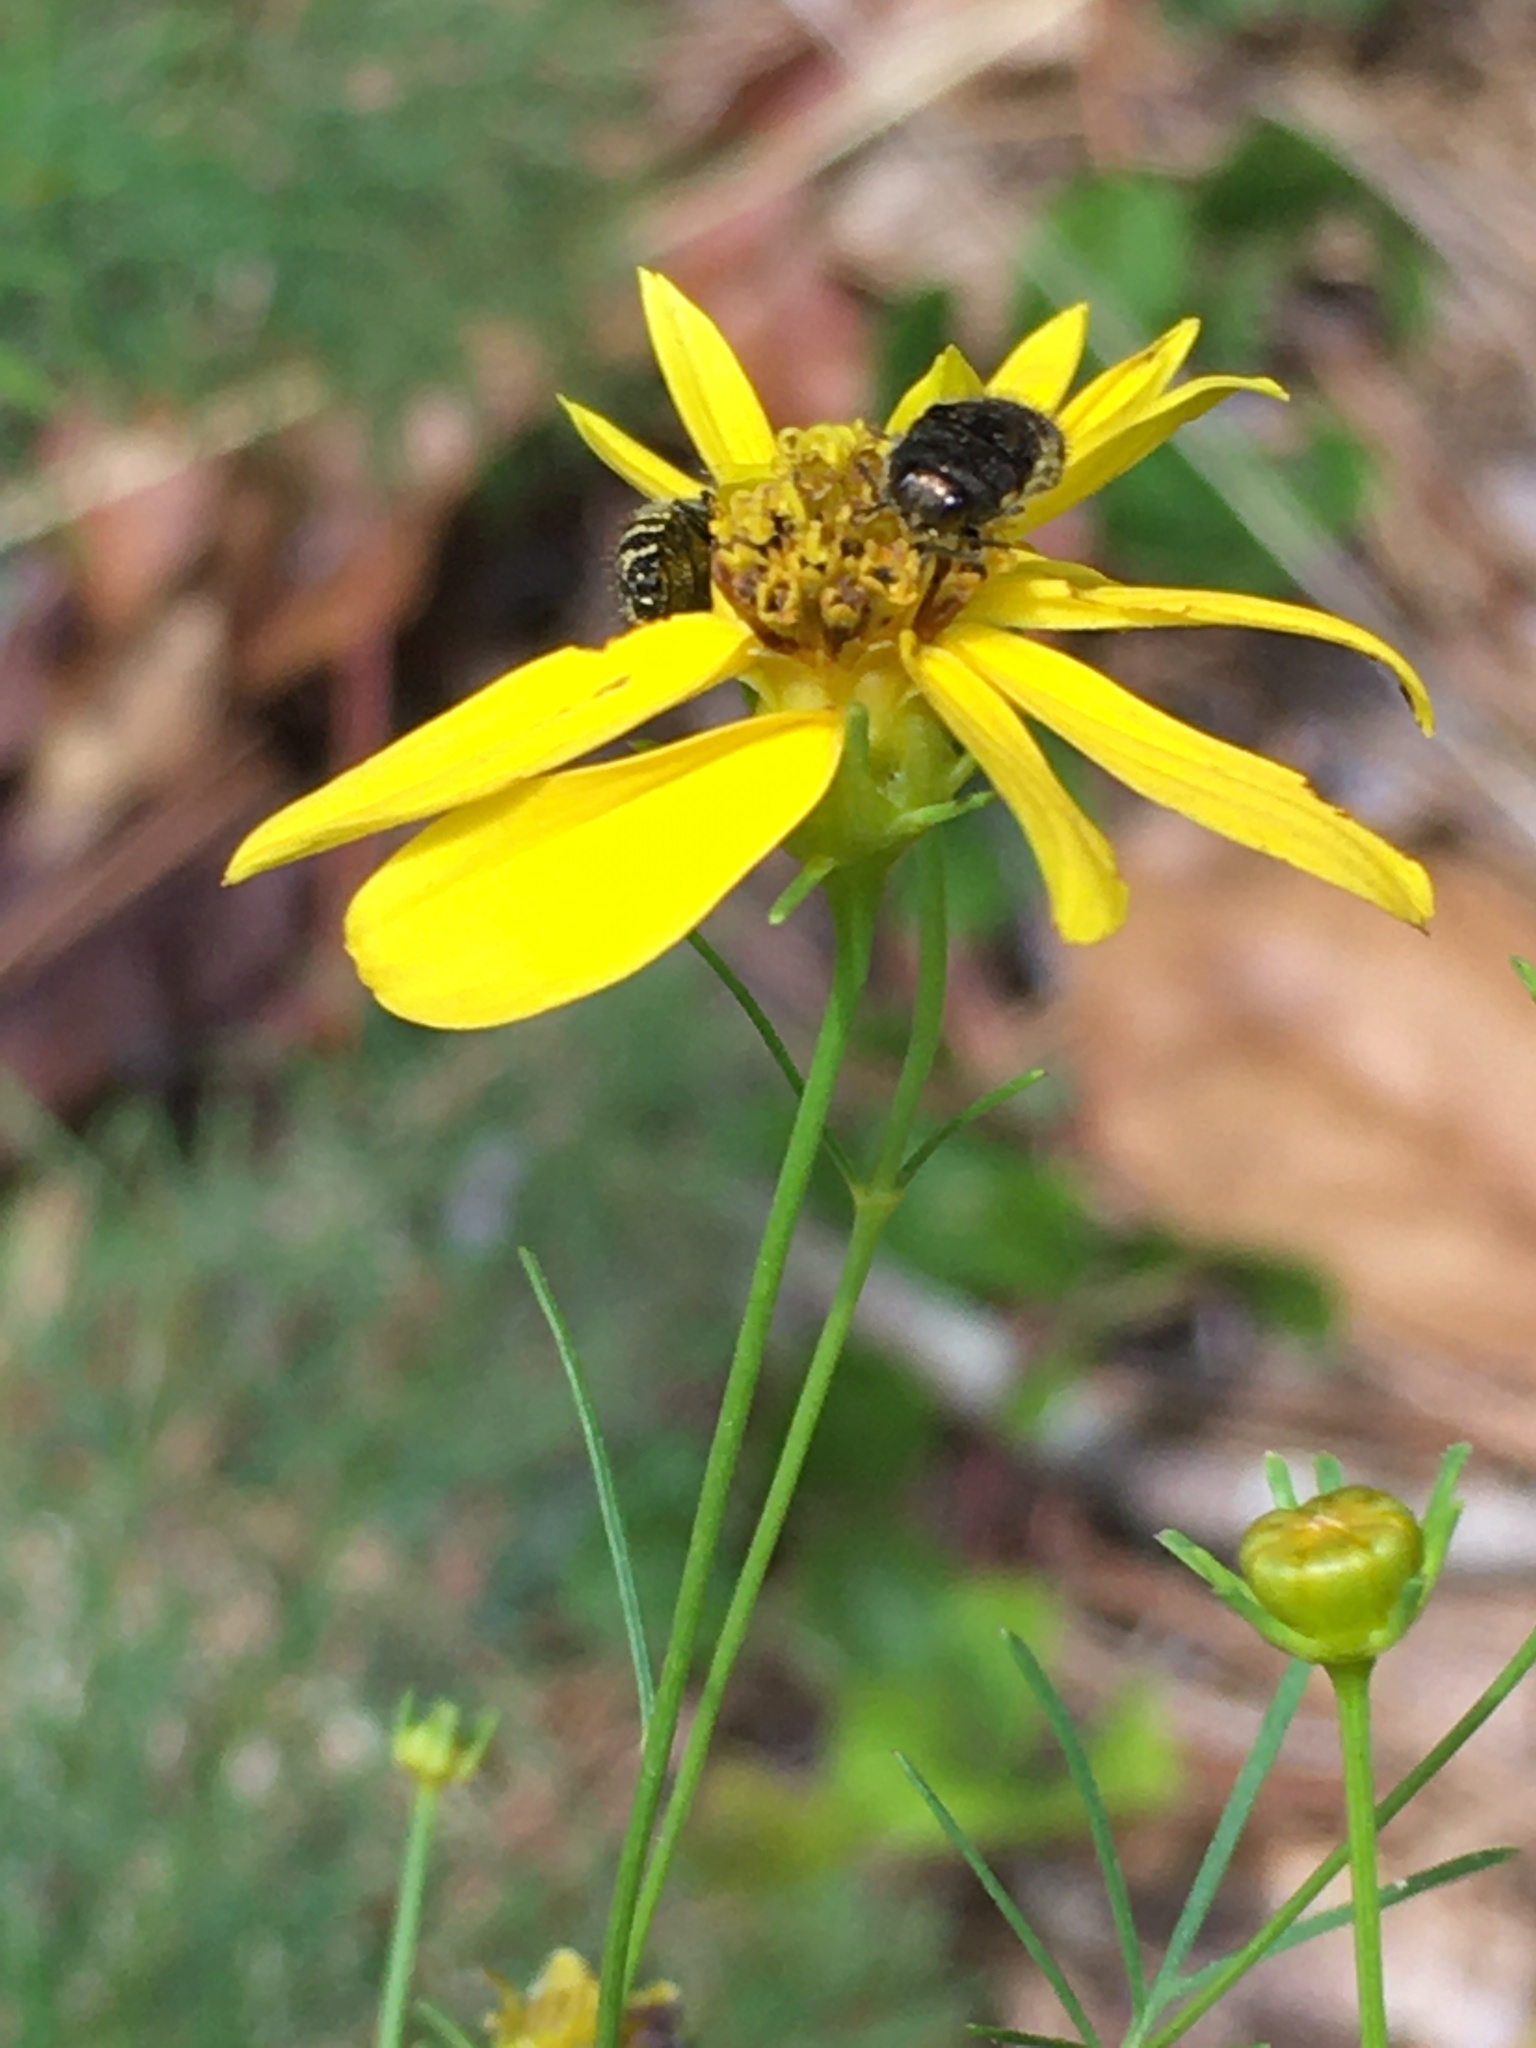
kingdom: Plantae
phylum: Tracheophyta
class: Magnoliopsida
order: Asterales
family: Asteraceae
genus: Coreopsis
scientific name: Coreopsis verticillata
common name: Whorled tickseed
